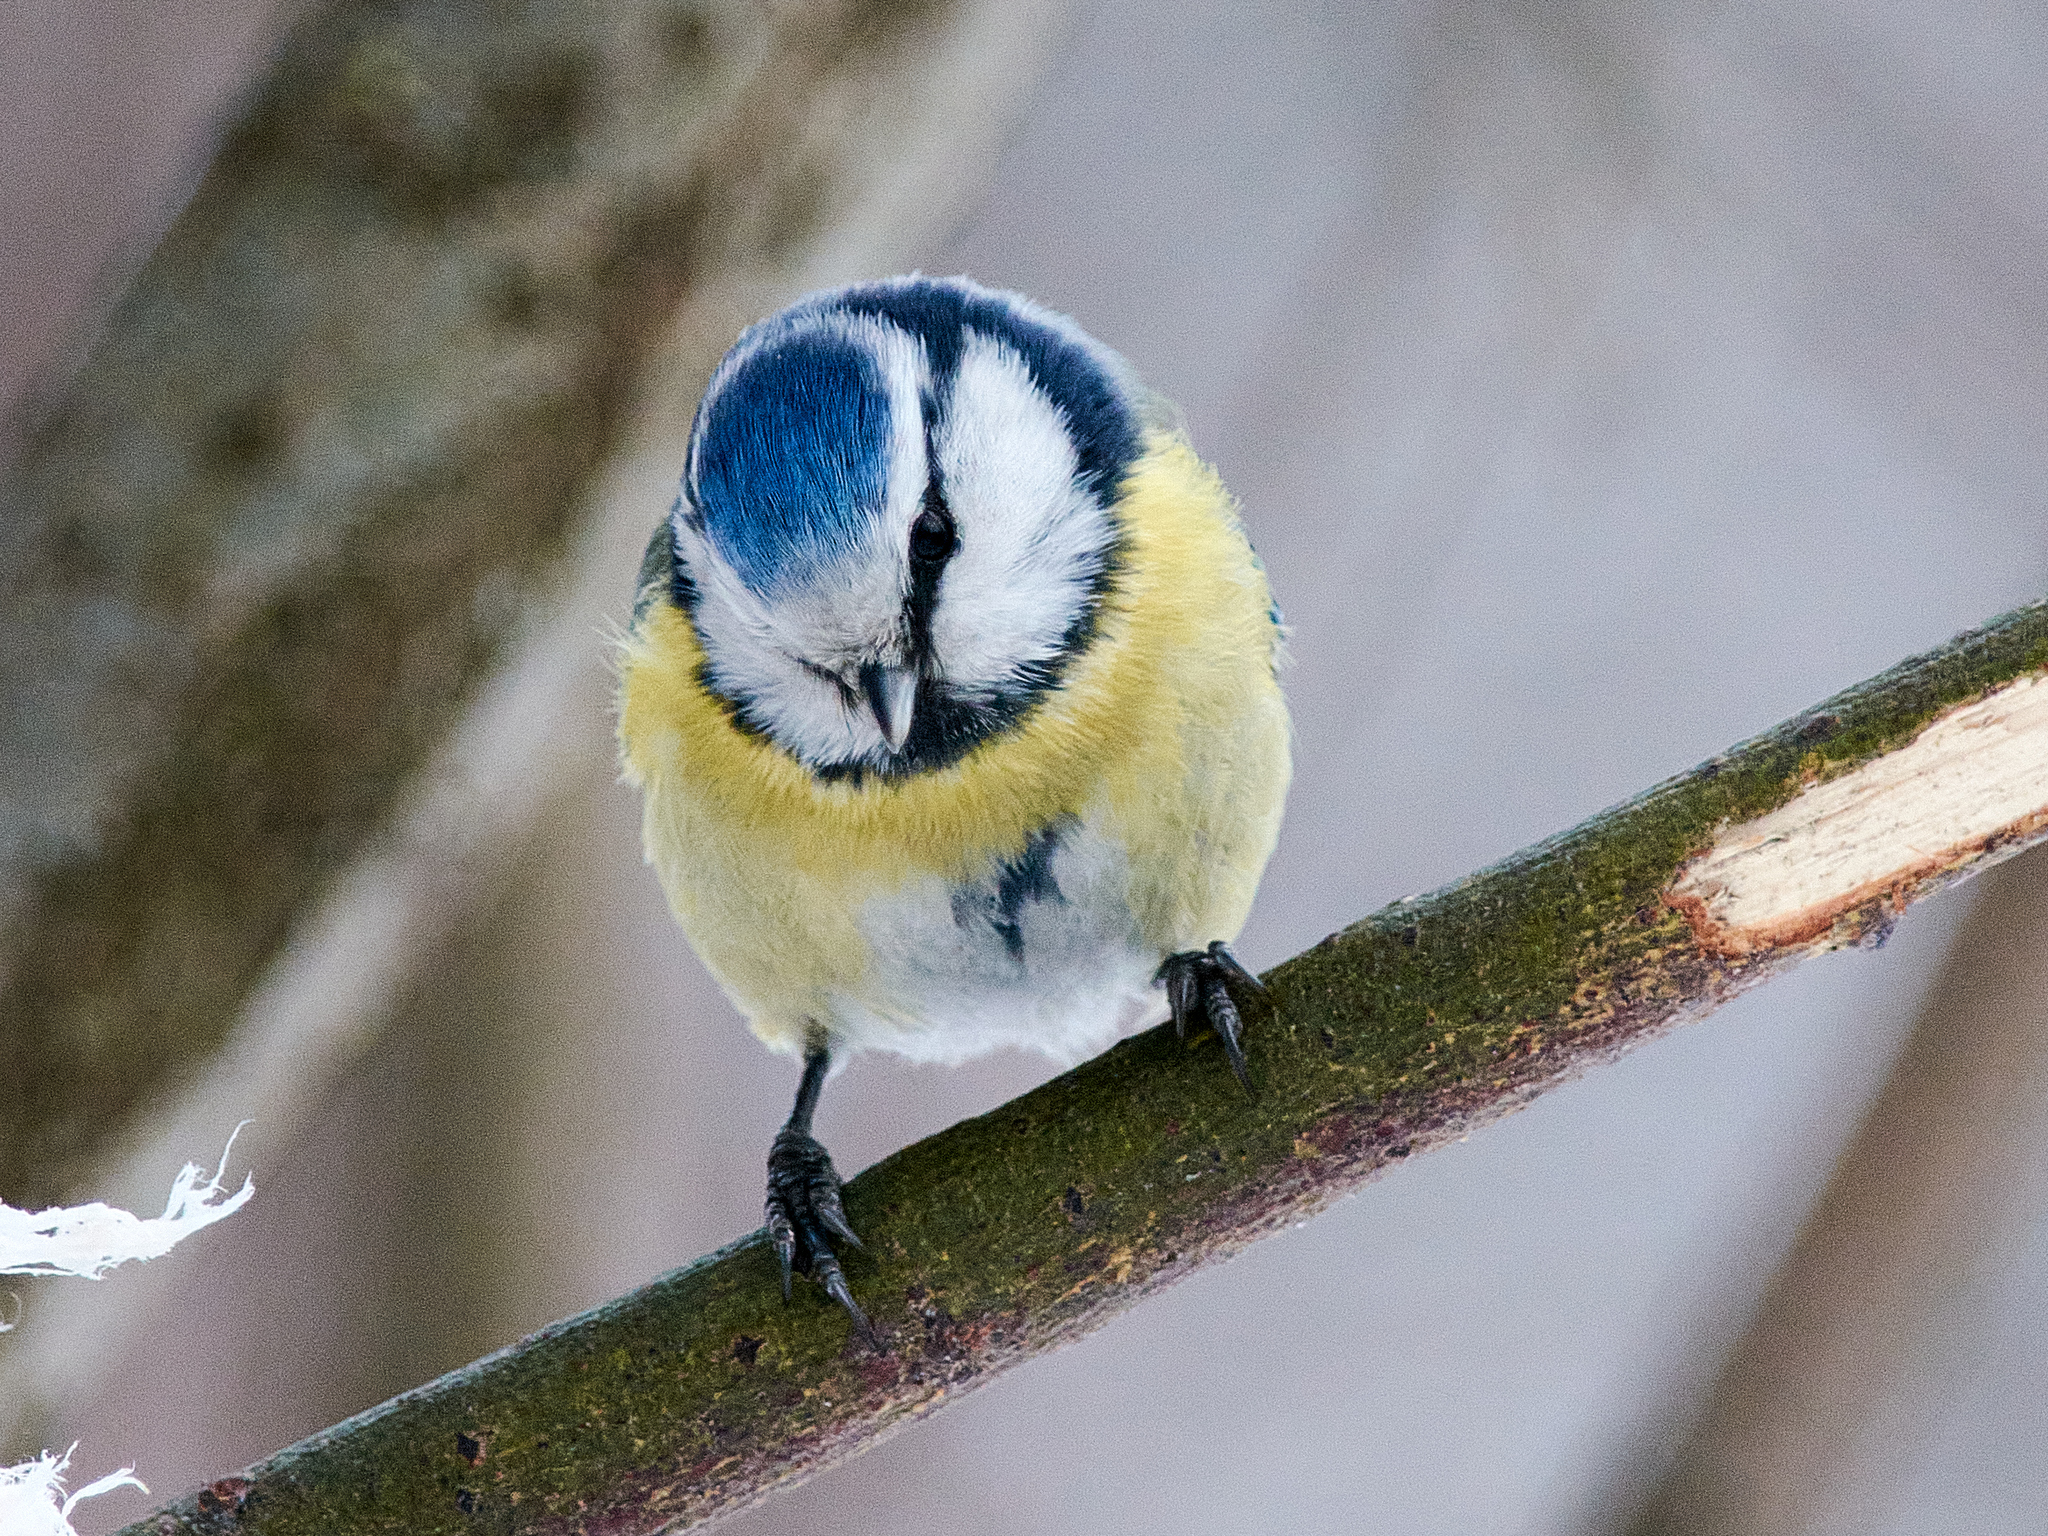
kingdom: Animalia
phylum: Chordata
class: Aves
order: Passeriformes
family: Paridae
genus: Cyanistes
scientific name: Cyanistes caeruleus
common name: Eurasian blue tit
